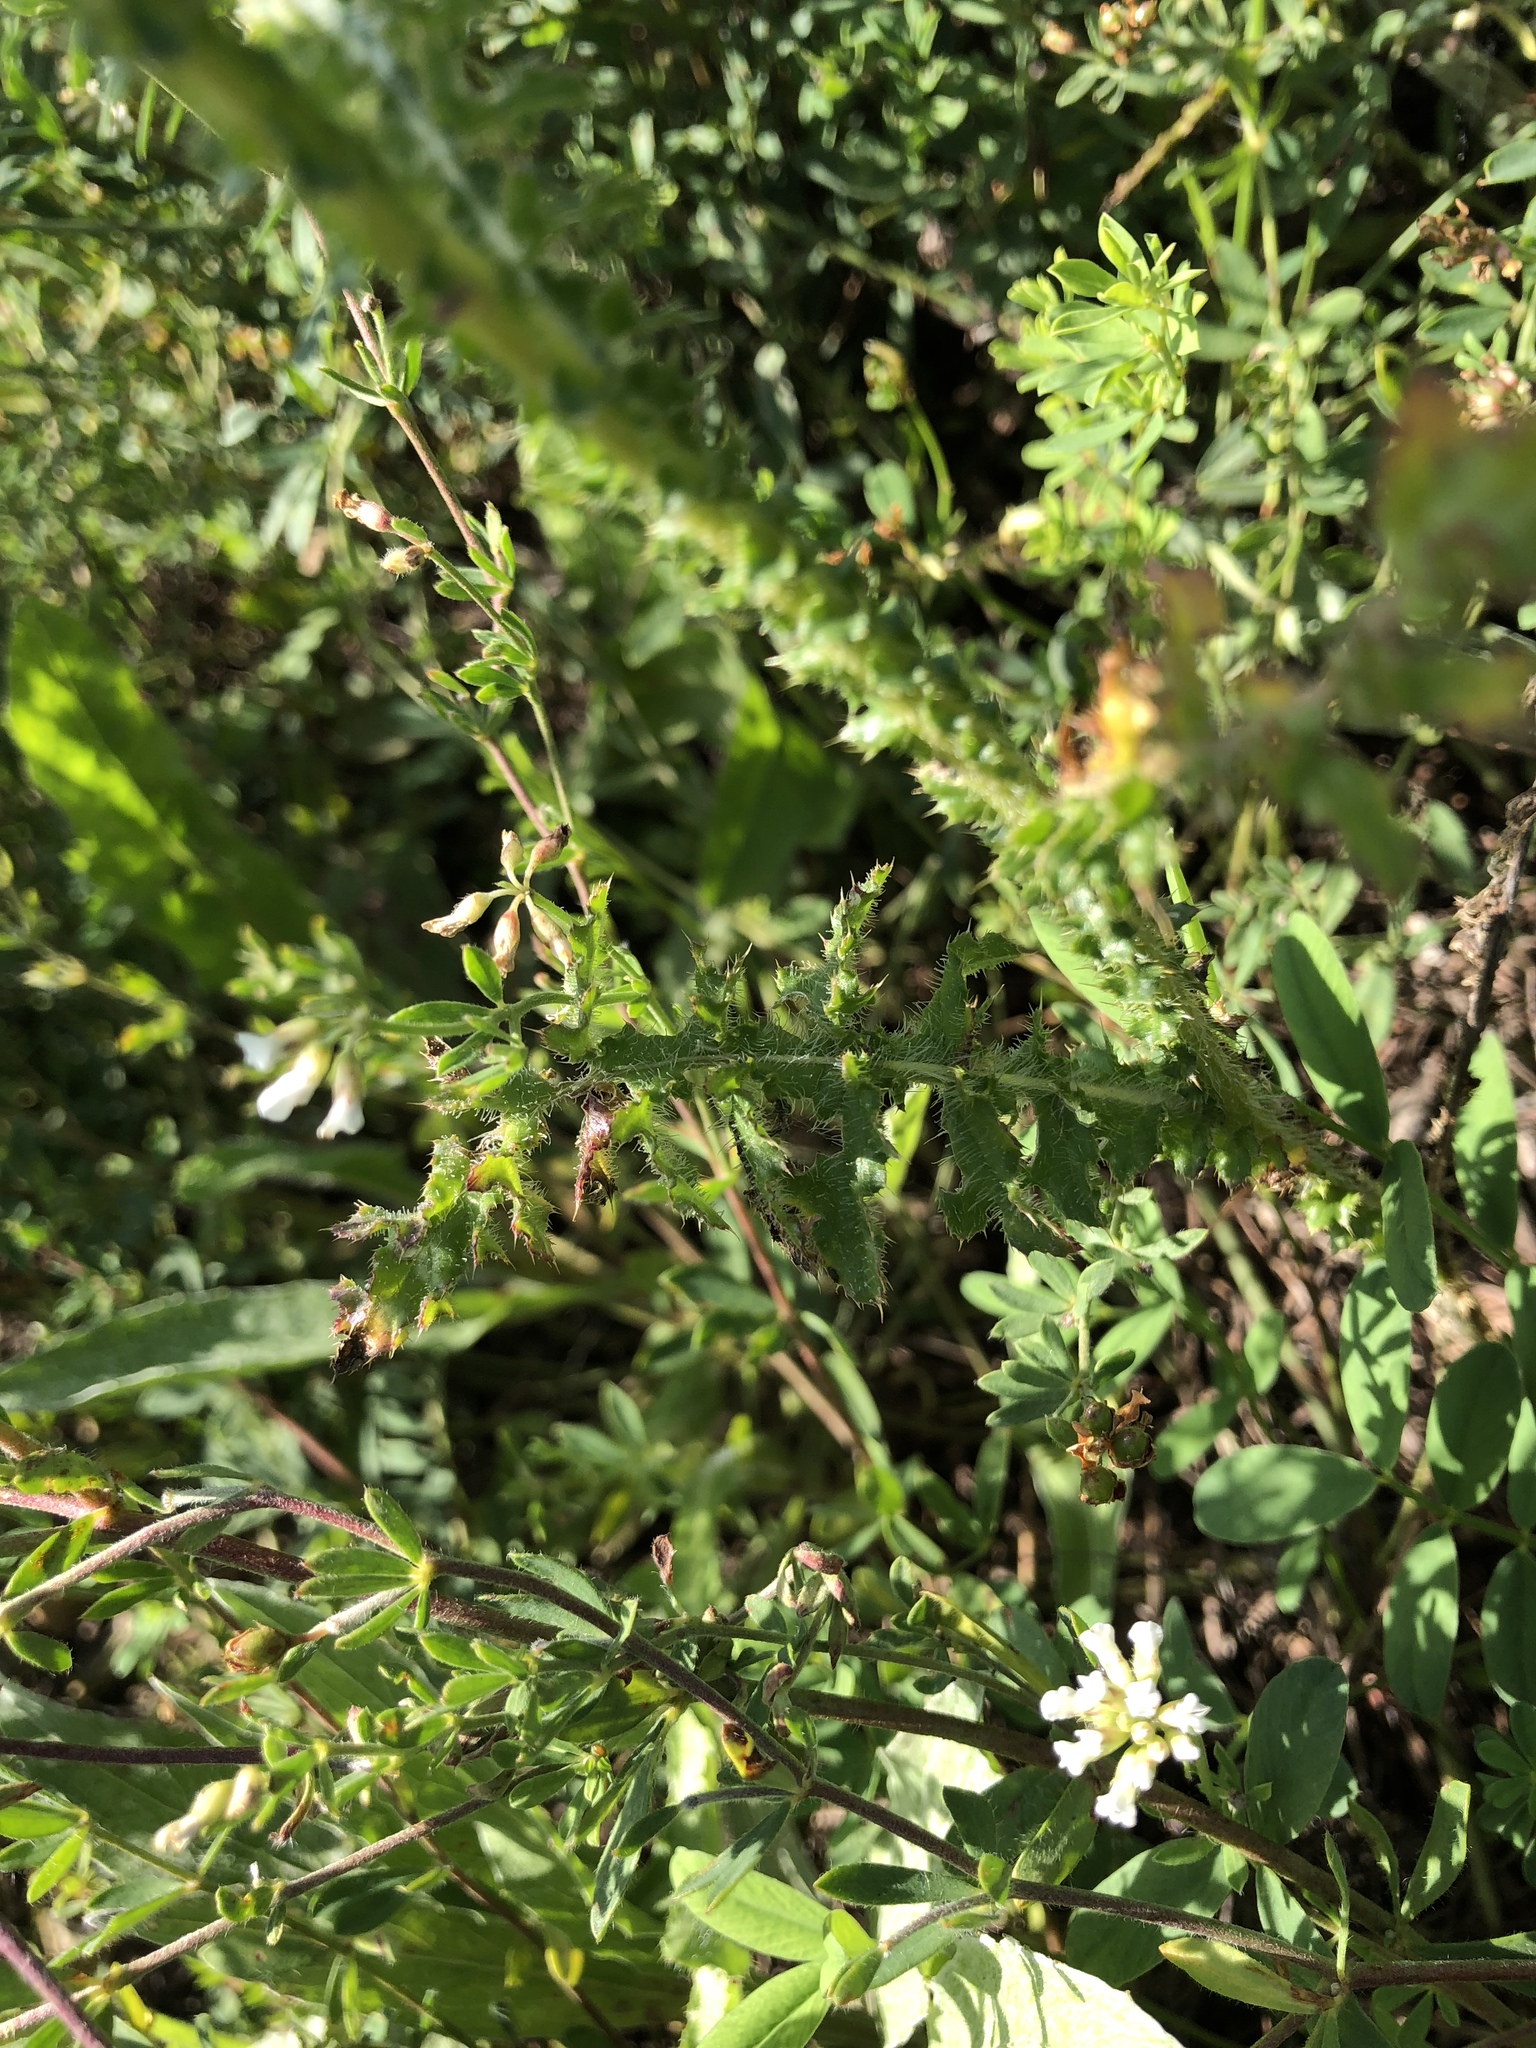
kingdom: Plantae
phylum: Tracheophyta
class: Magnoliopsida
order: Asterales
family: Asteraceae
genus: Carduus
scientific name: Carduus collinus
